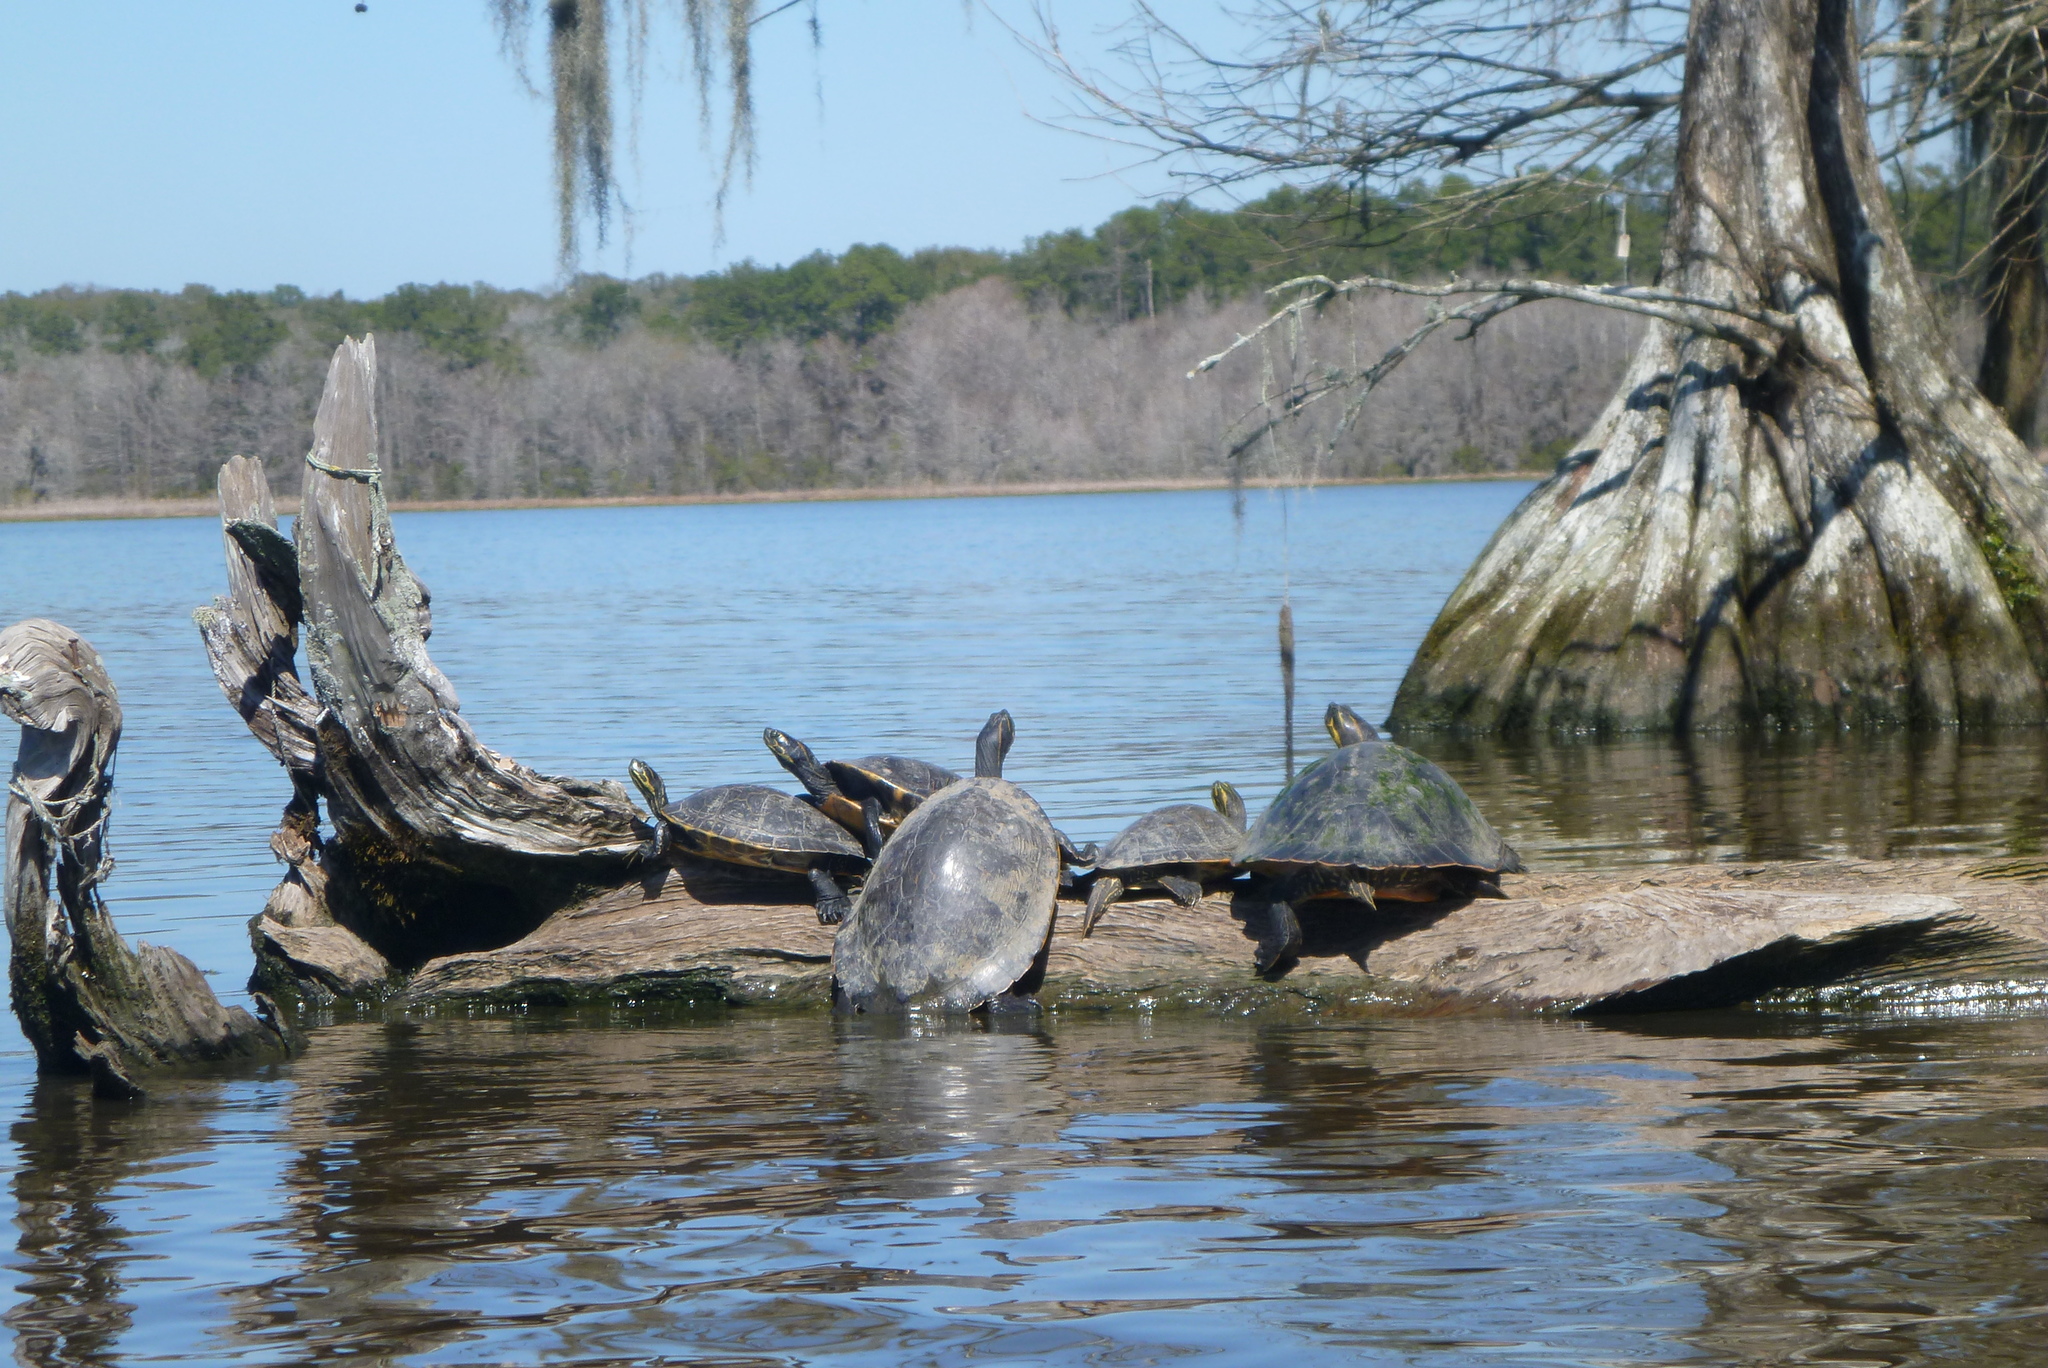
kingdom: Animalia
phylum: Chordata
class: Testudines
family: Emydidae
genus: Pseudemys
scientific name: Pseudemys concinna
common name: Eastern river cooter
